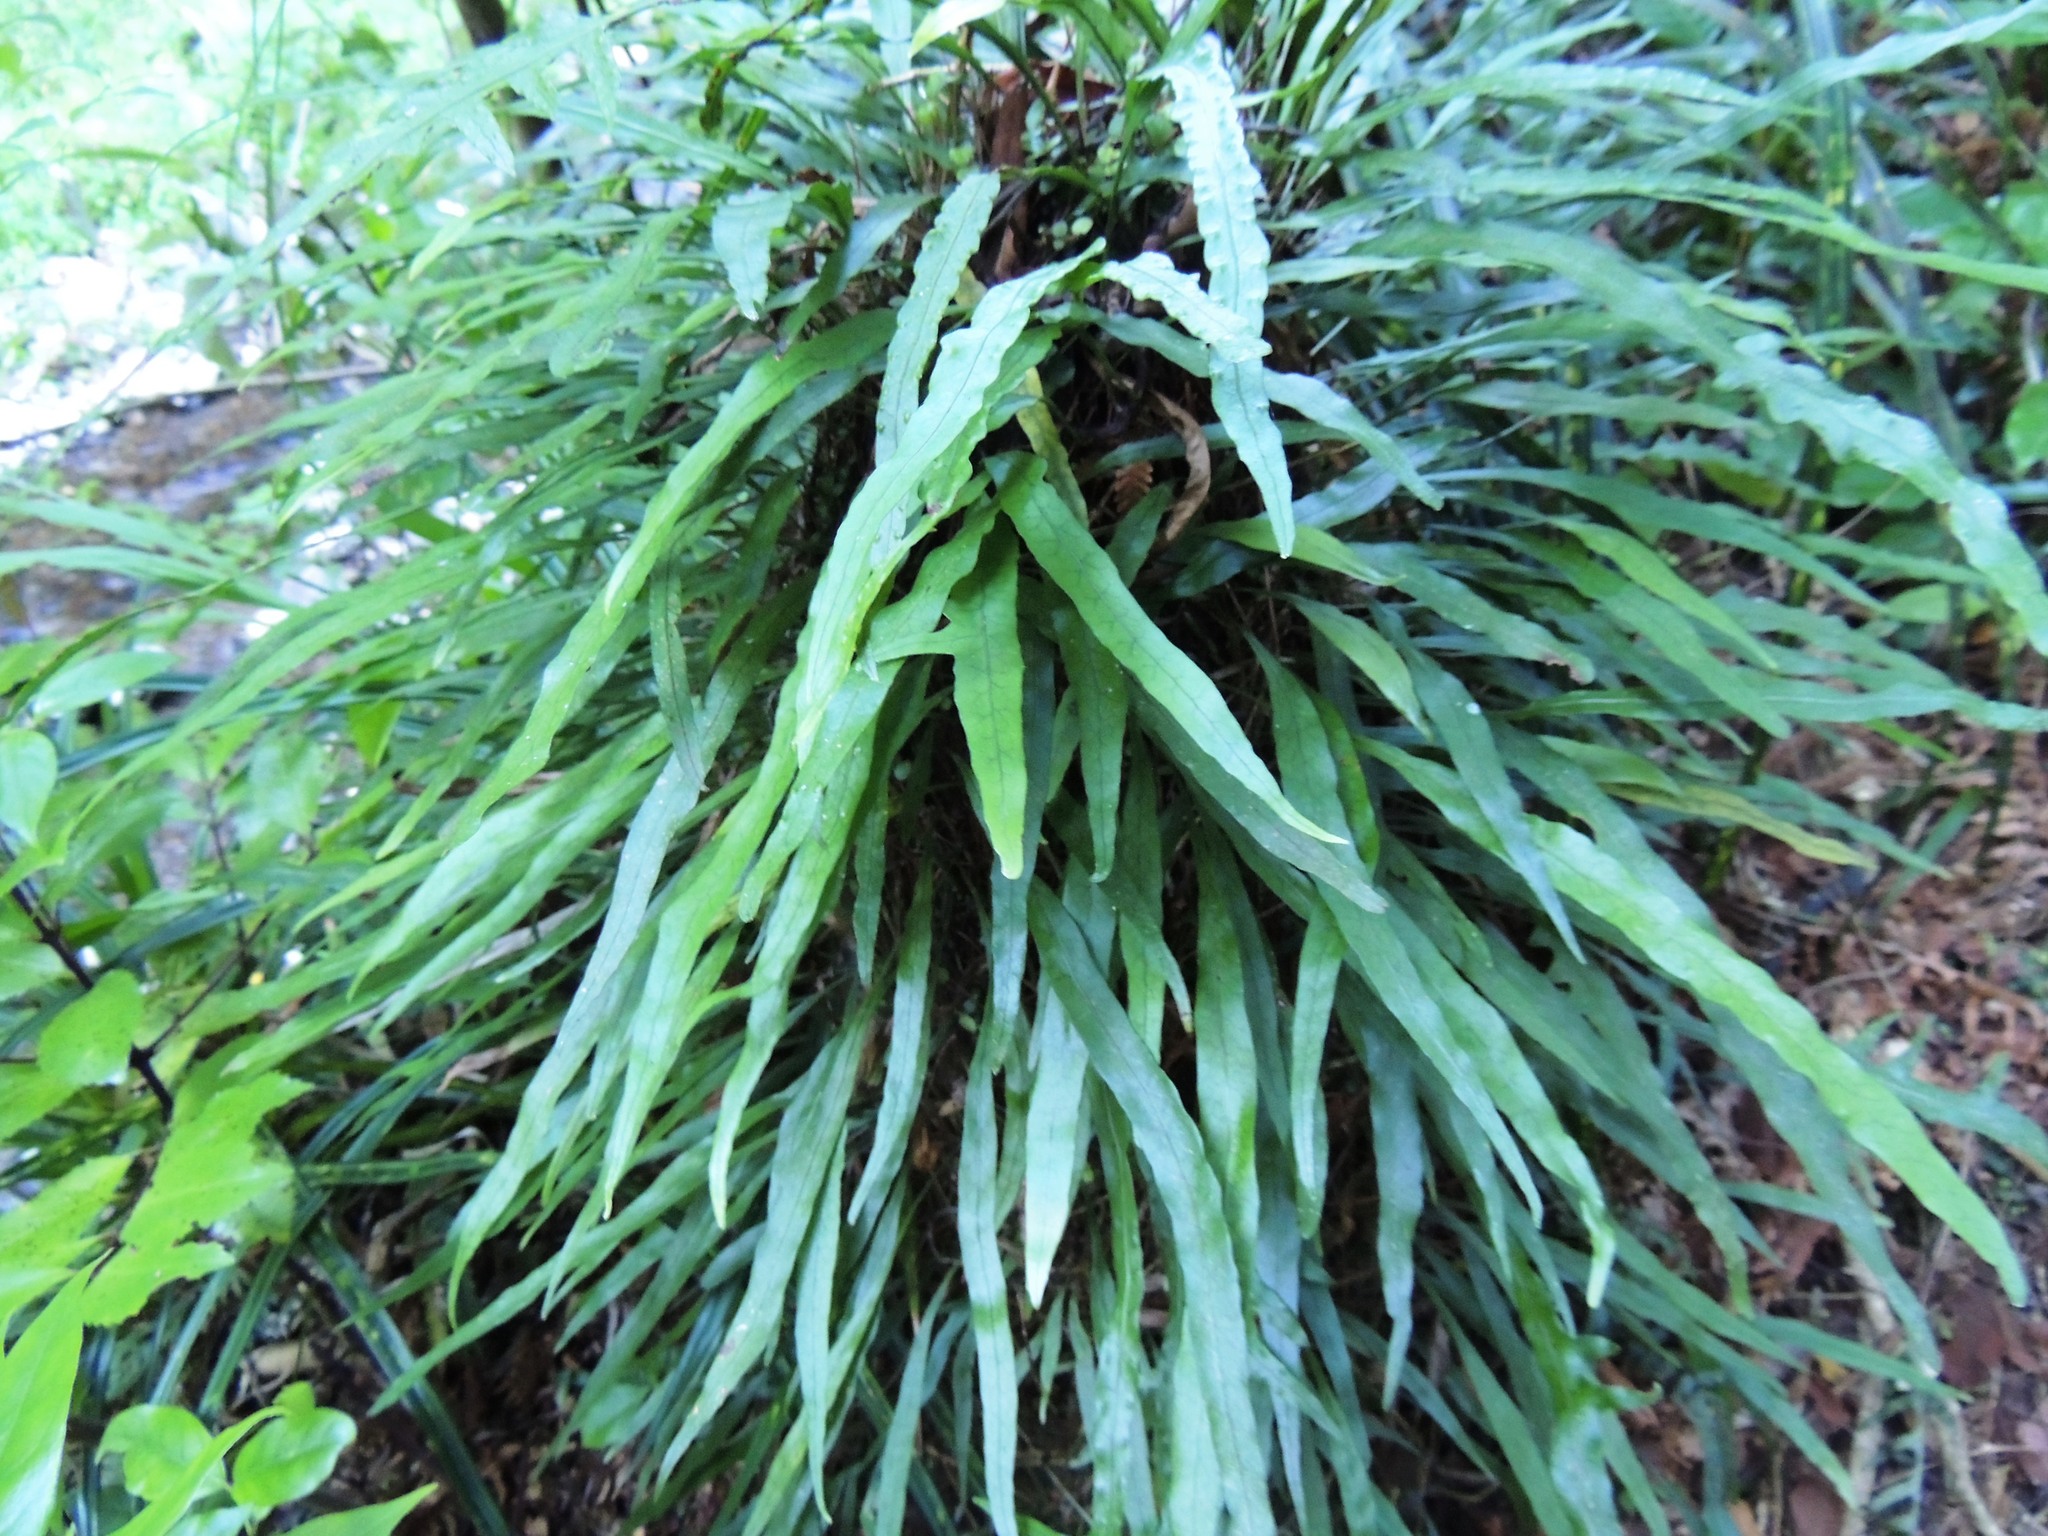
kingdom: Plantae
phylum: Tracheophyta
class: Polypodiopsida
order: Polypodiales
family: Polypodiaceae
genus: Lecanopteris
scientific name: Lecanopteris scandens
